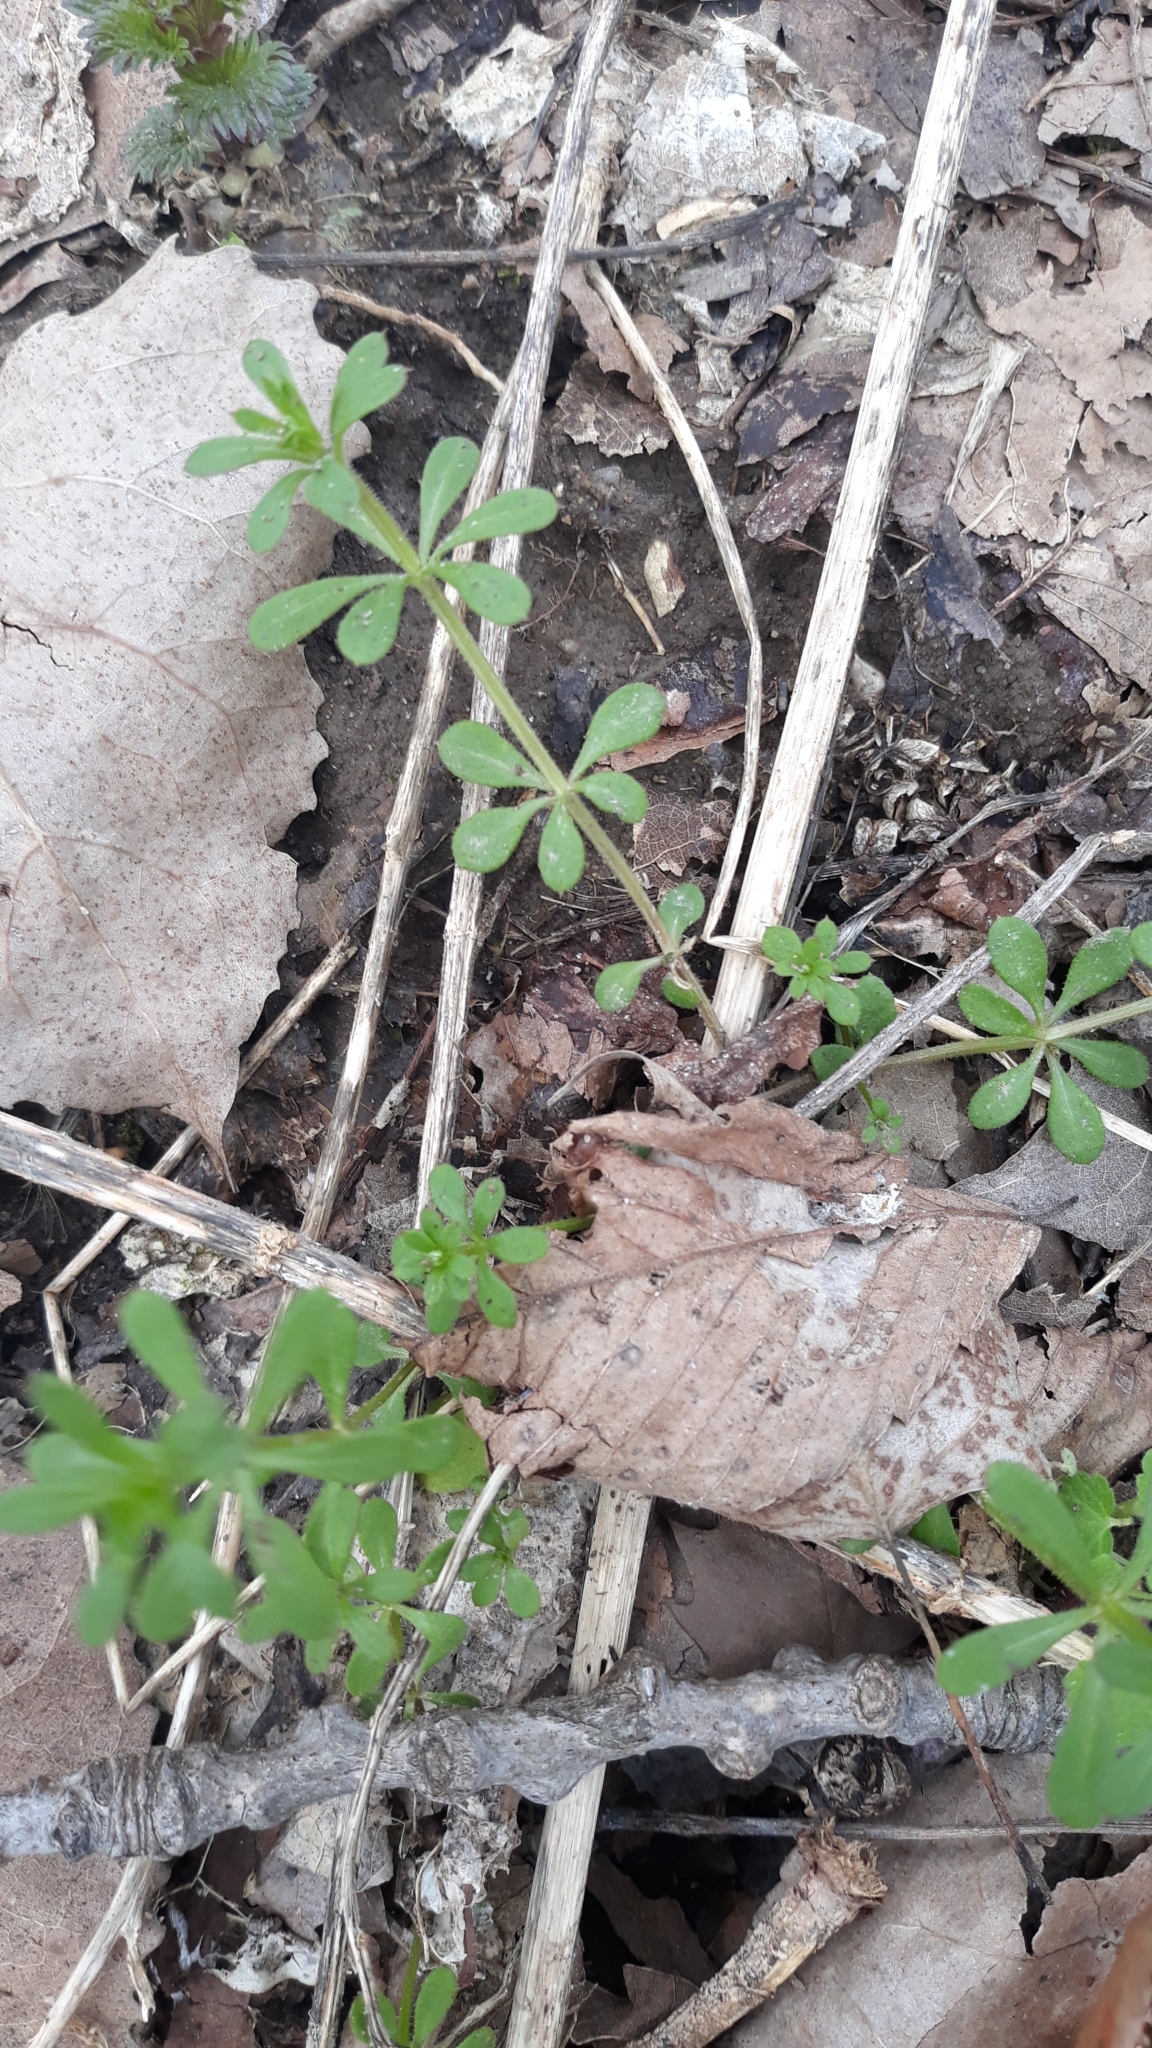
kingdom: Plantae
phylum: Tracheophyta
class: Magnoliopsida
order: Gentianales
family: Rubiaceae
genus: Galium
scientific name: Galium aparine
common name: Cleavers
